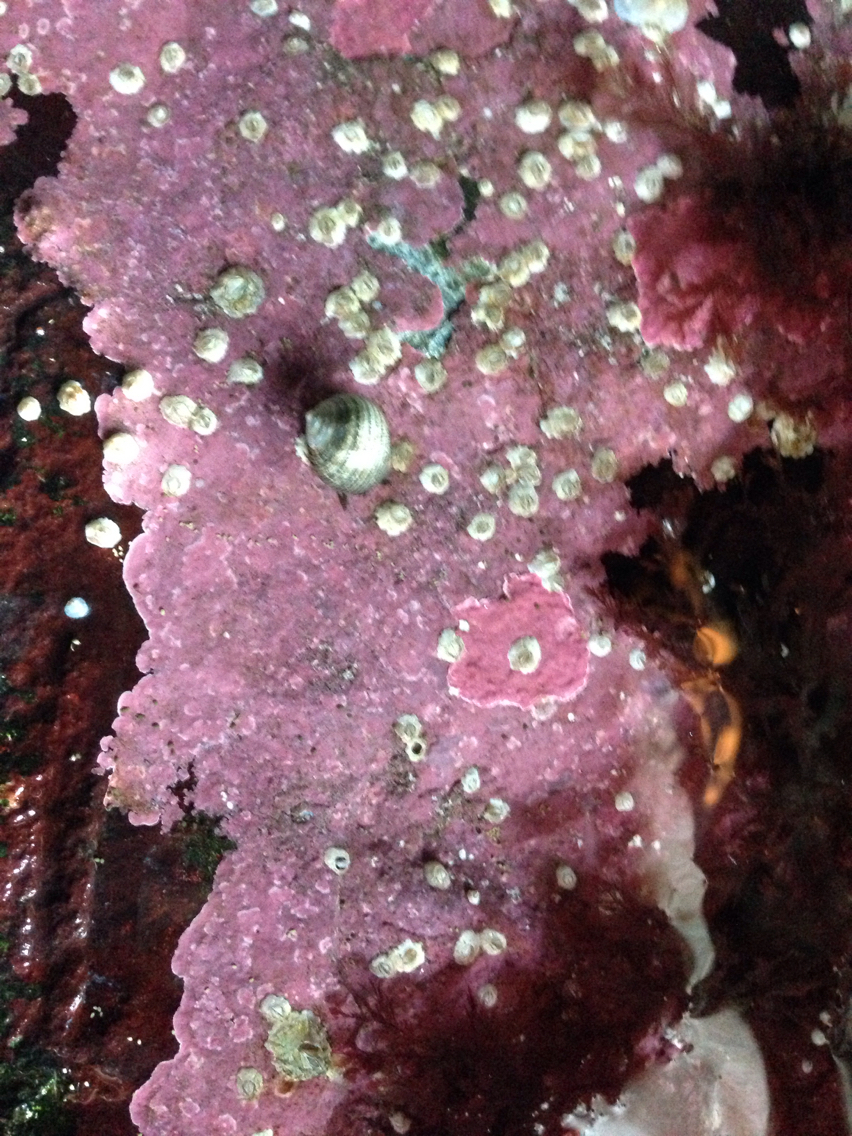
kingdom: Plantae
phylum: Rhodophyta
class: Florideophyceae
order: Corallinales
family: Corallinaceae
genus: Corallina
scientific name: Corallina officinalis
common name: Coral weed
